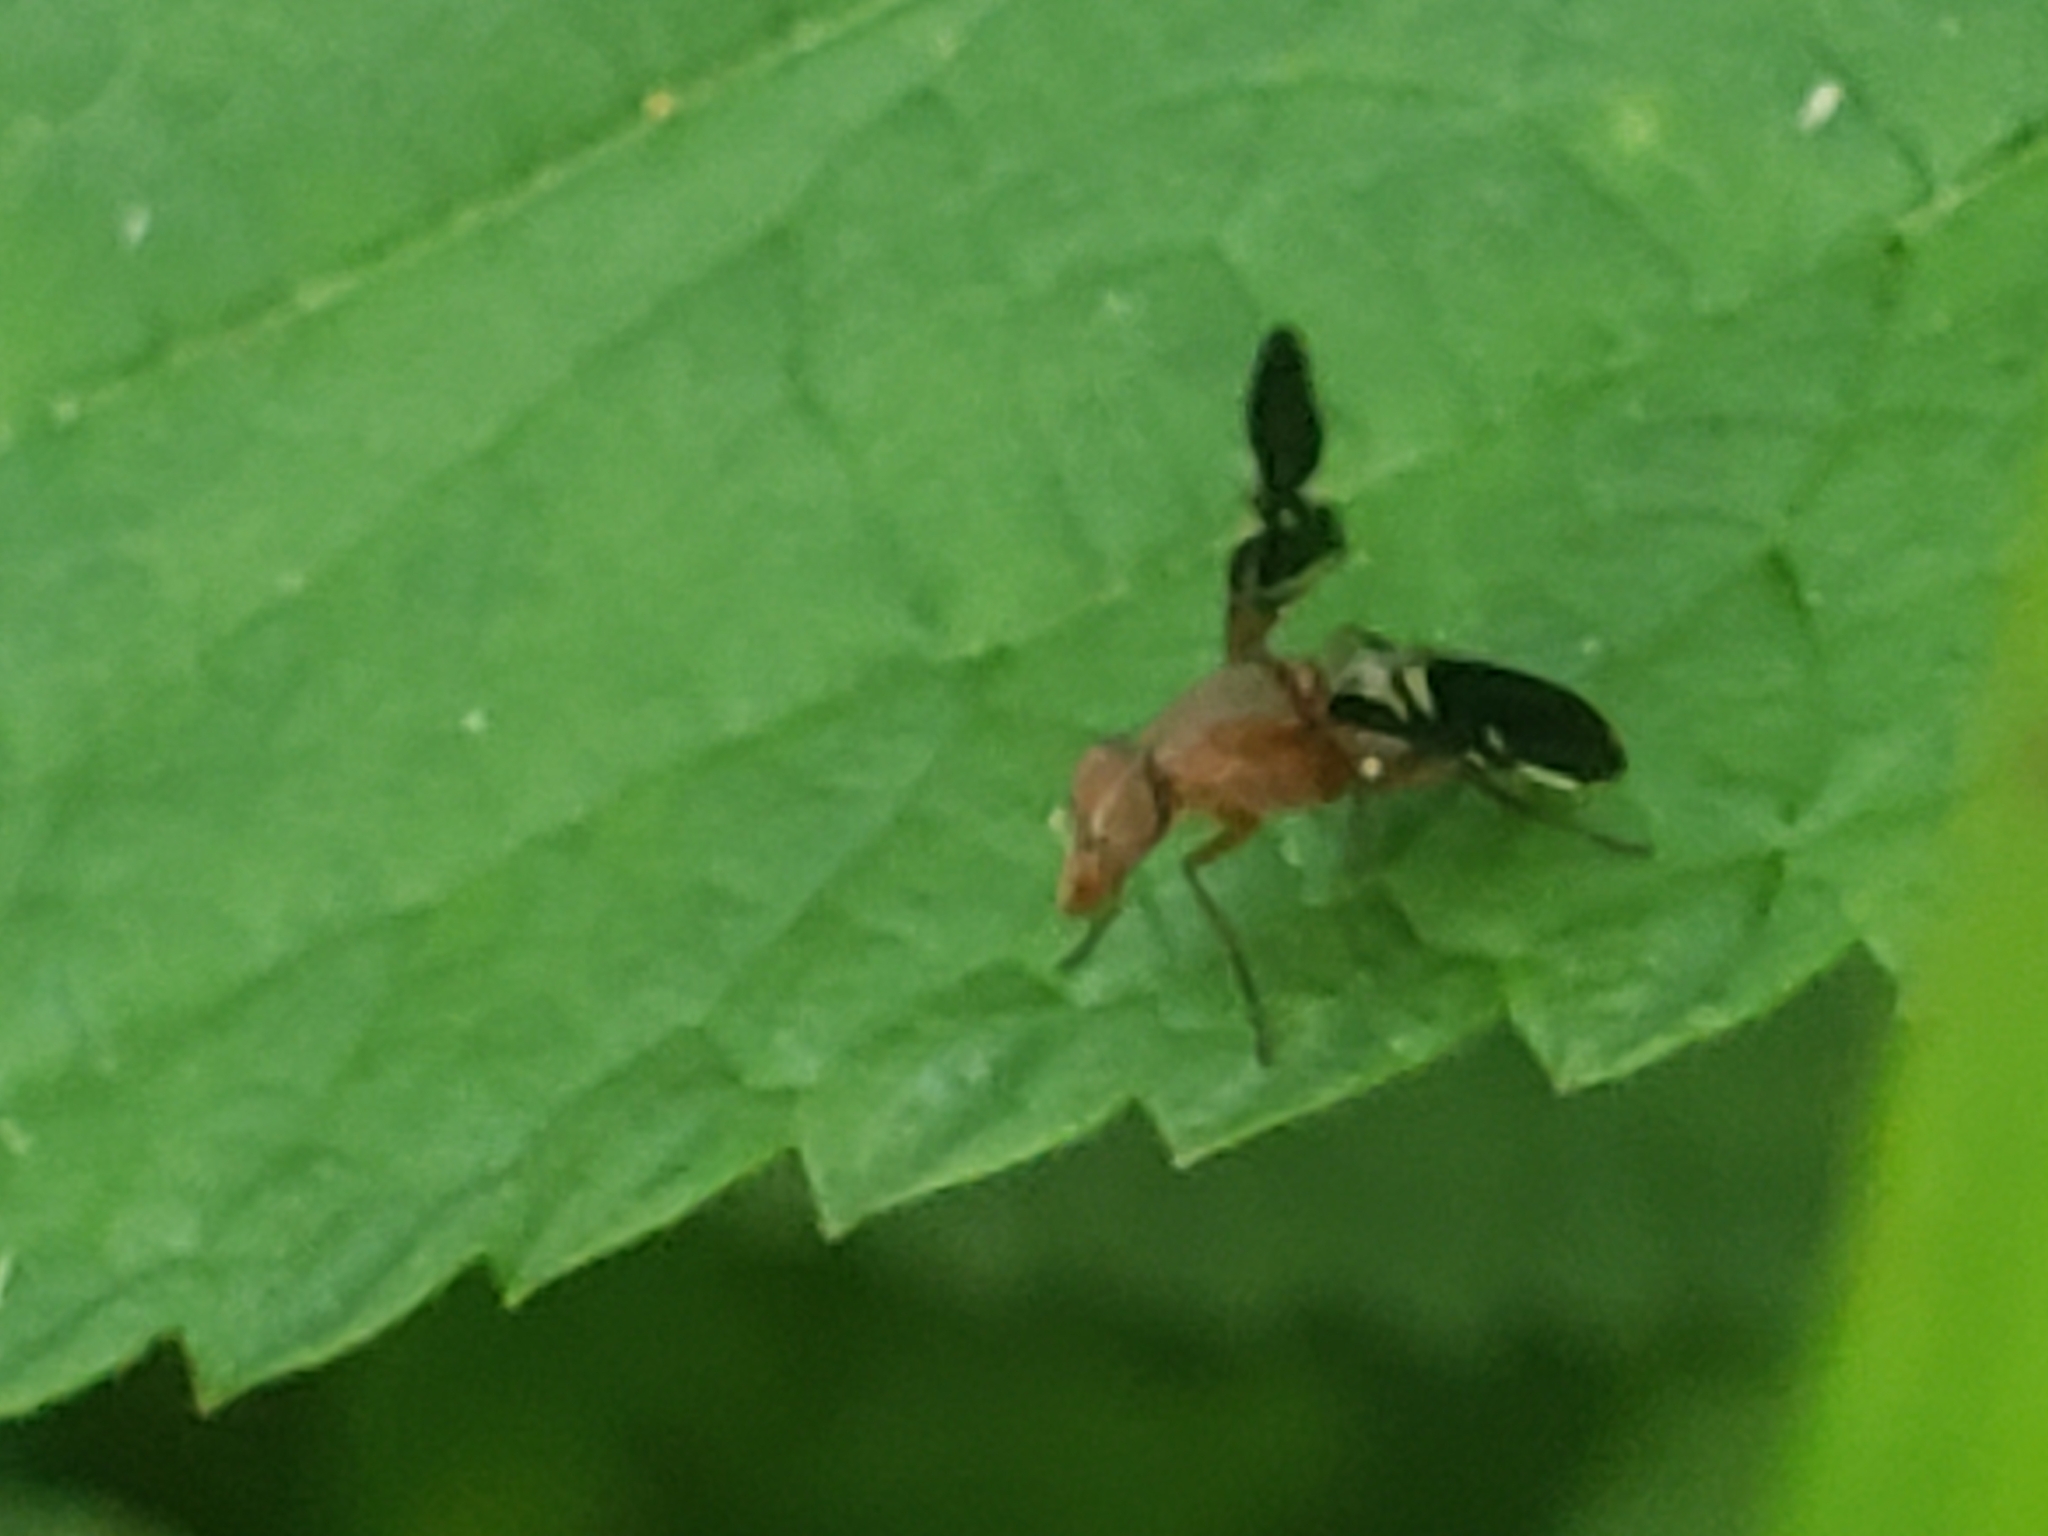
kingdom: Animalia
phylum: Arthropoda
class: Insecta
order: Diptera
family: Ulidiidae
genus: Delphinia
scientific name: Delphinia picta
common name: Common picture-winged fly
